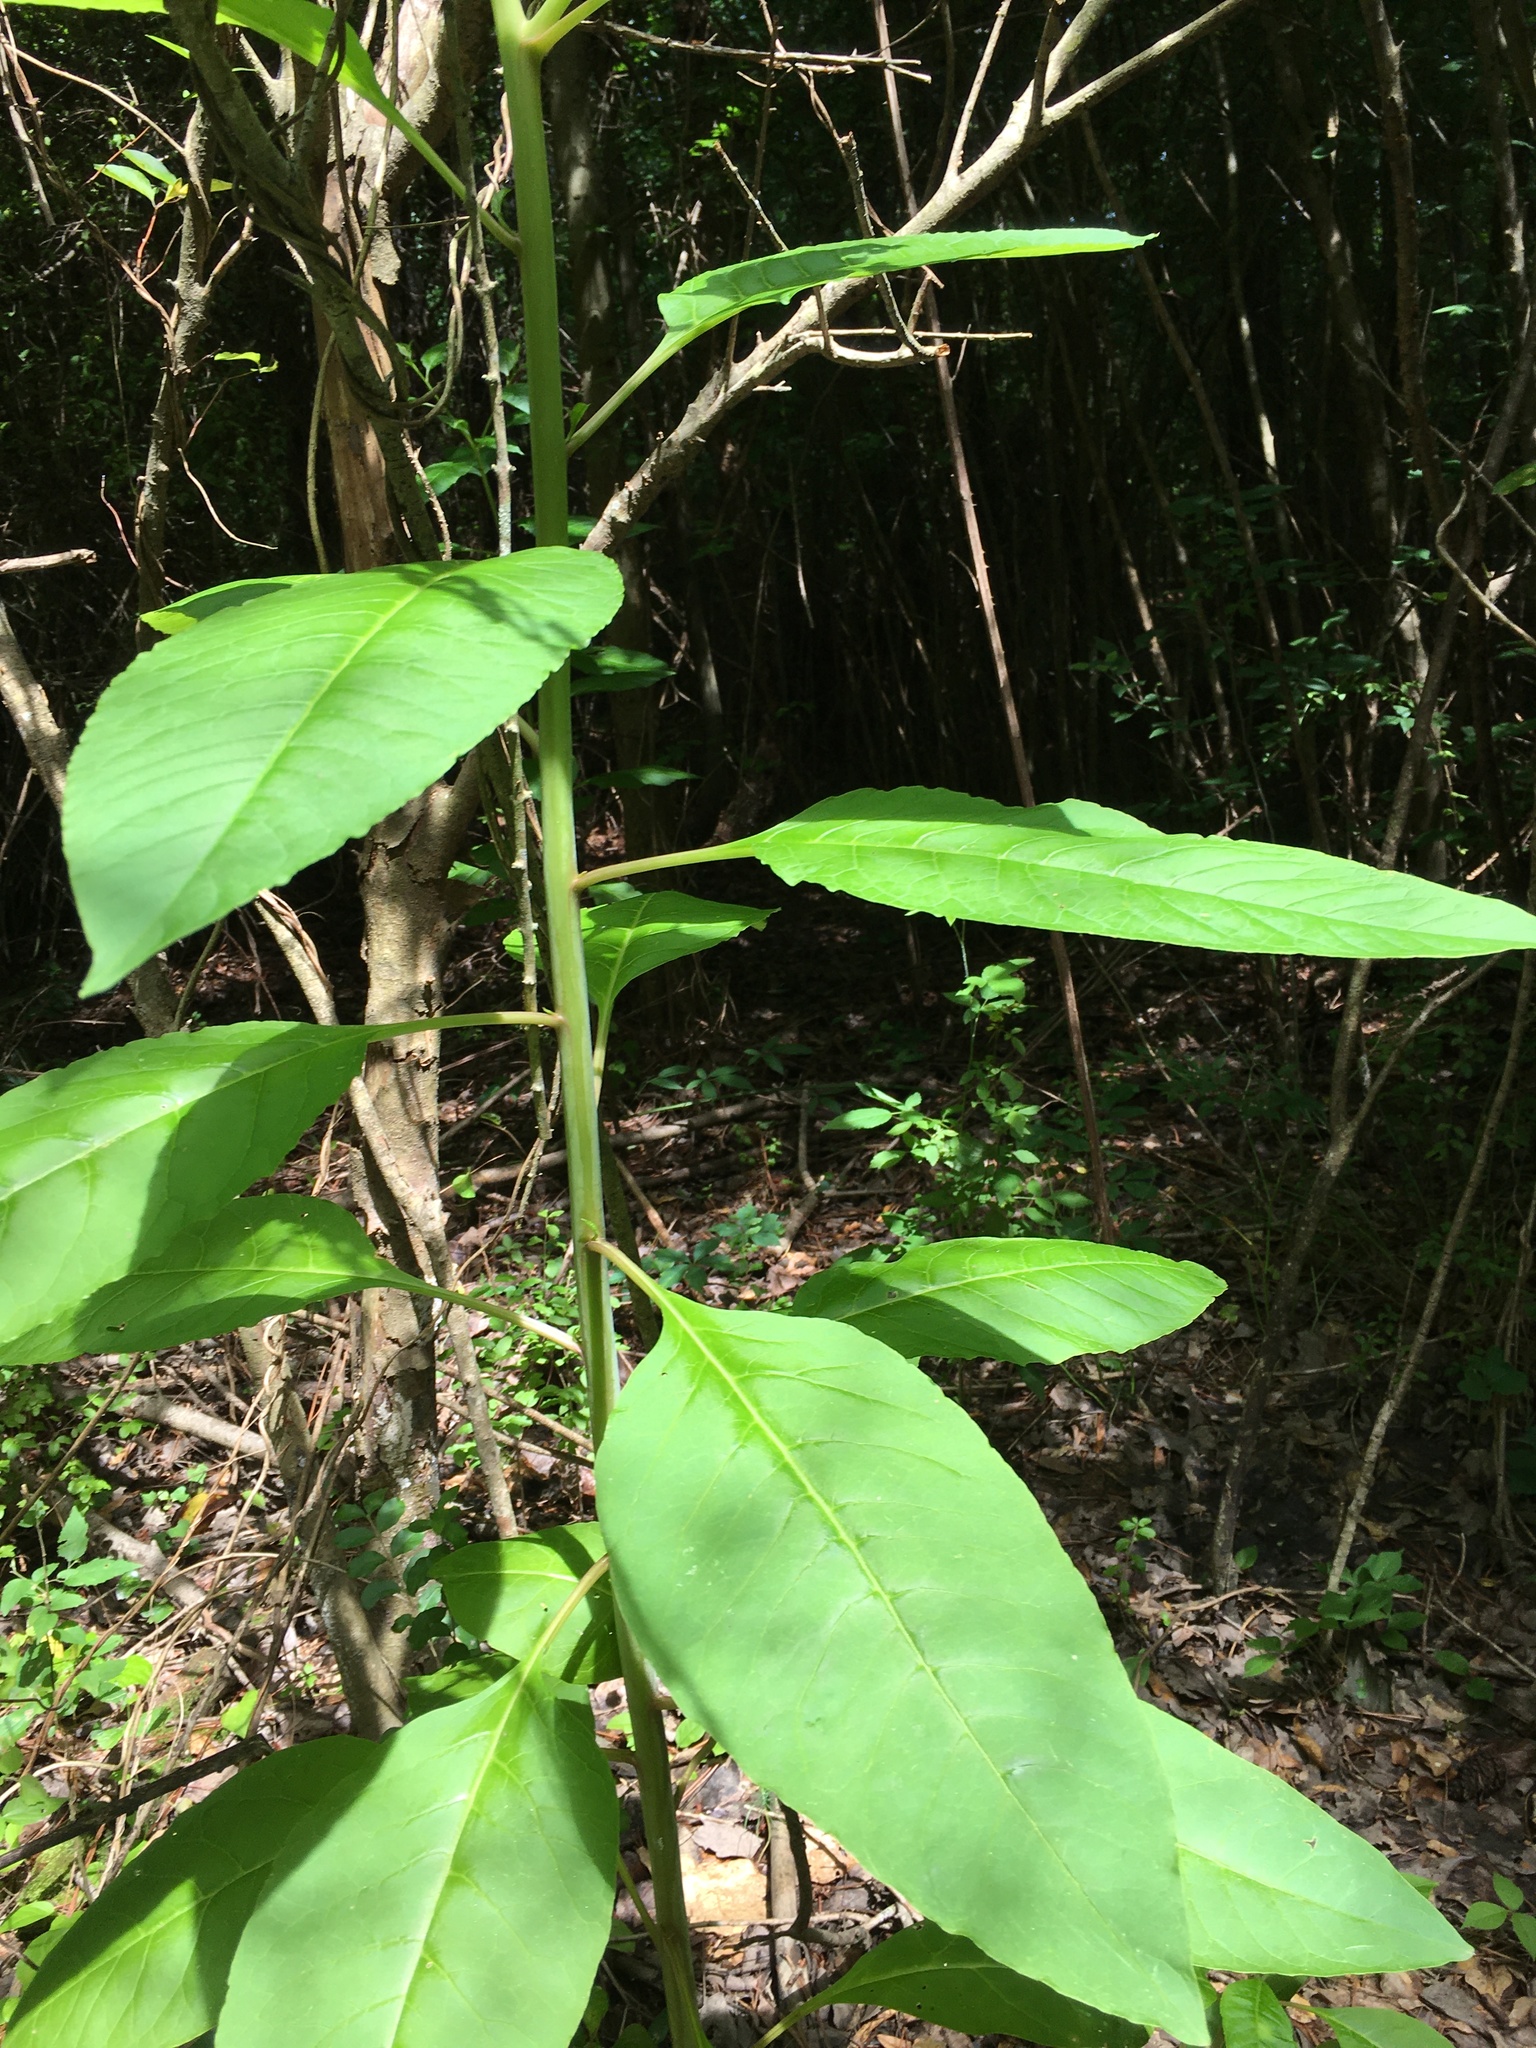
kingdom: Plantae
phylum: Tracheophyta
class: Magnoliopsida
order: Caryophyllales
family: Phytolaccaceae
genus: Phytolacca
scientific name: Phytolacca americana
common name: American pokeweed
